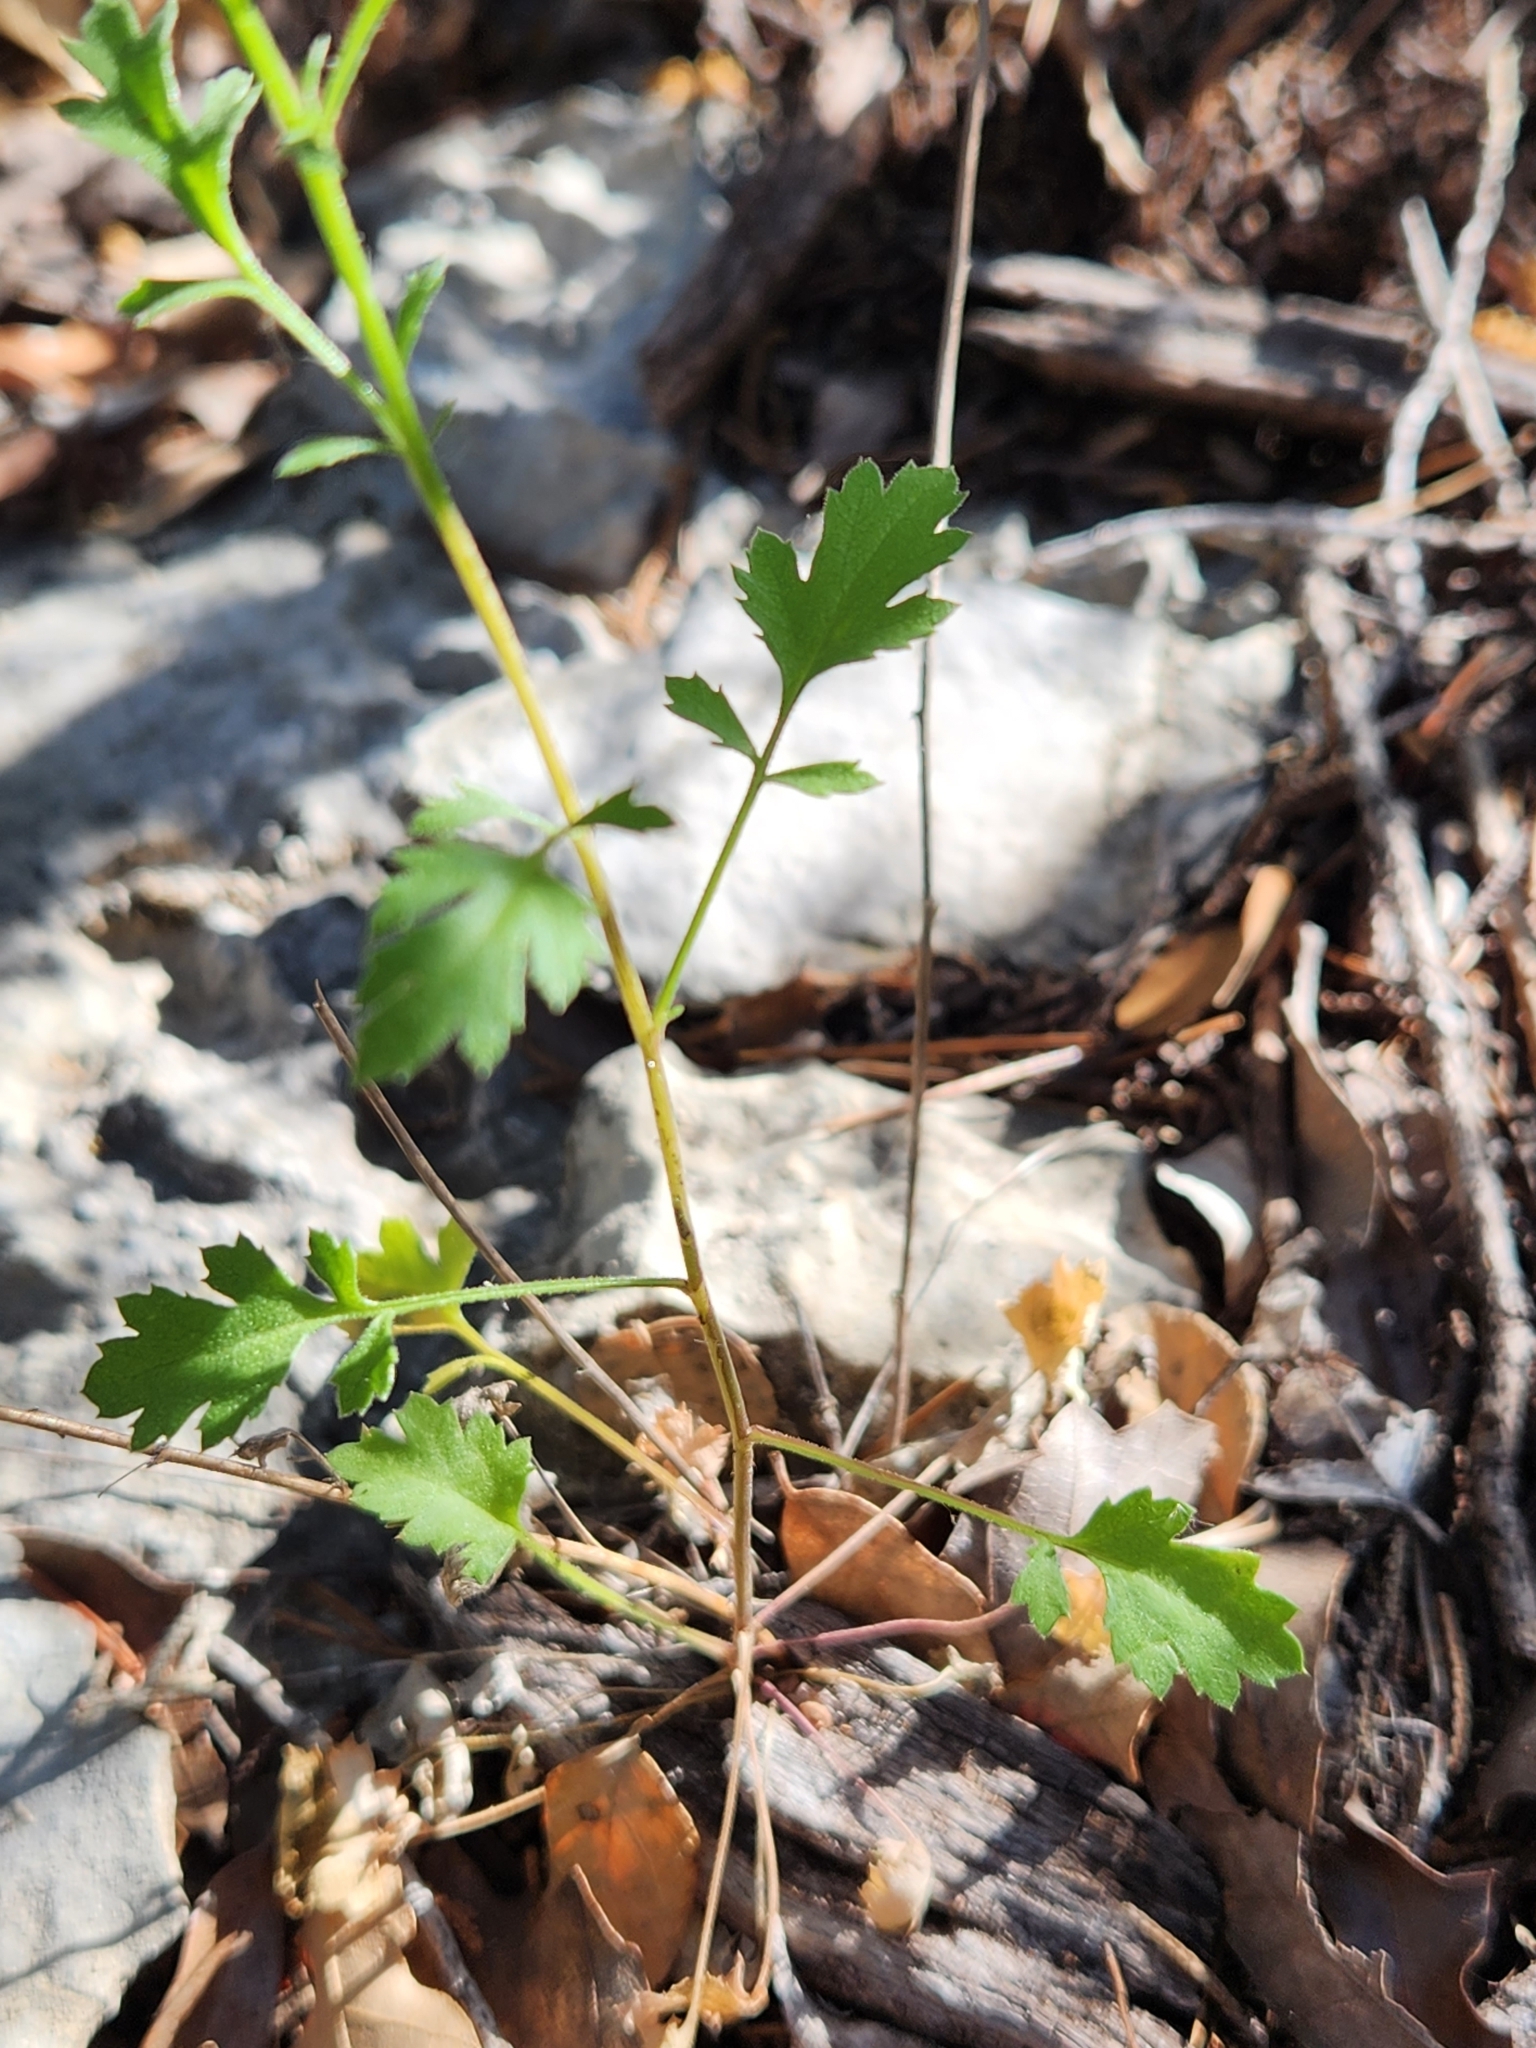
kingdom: Plantae
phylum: Tracheophyta
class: Magnoliopsida
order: Ericales
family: Polemoniaceae
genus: Giliastrum
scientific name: Giliastrum incisum
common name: Splitleaf gilia
